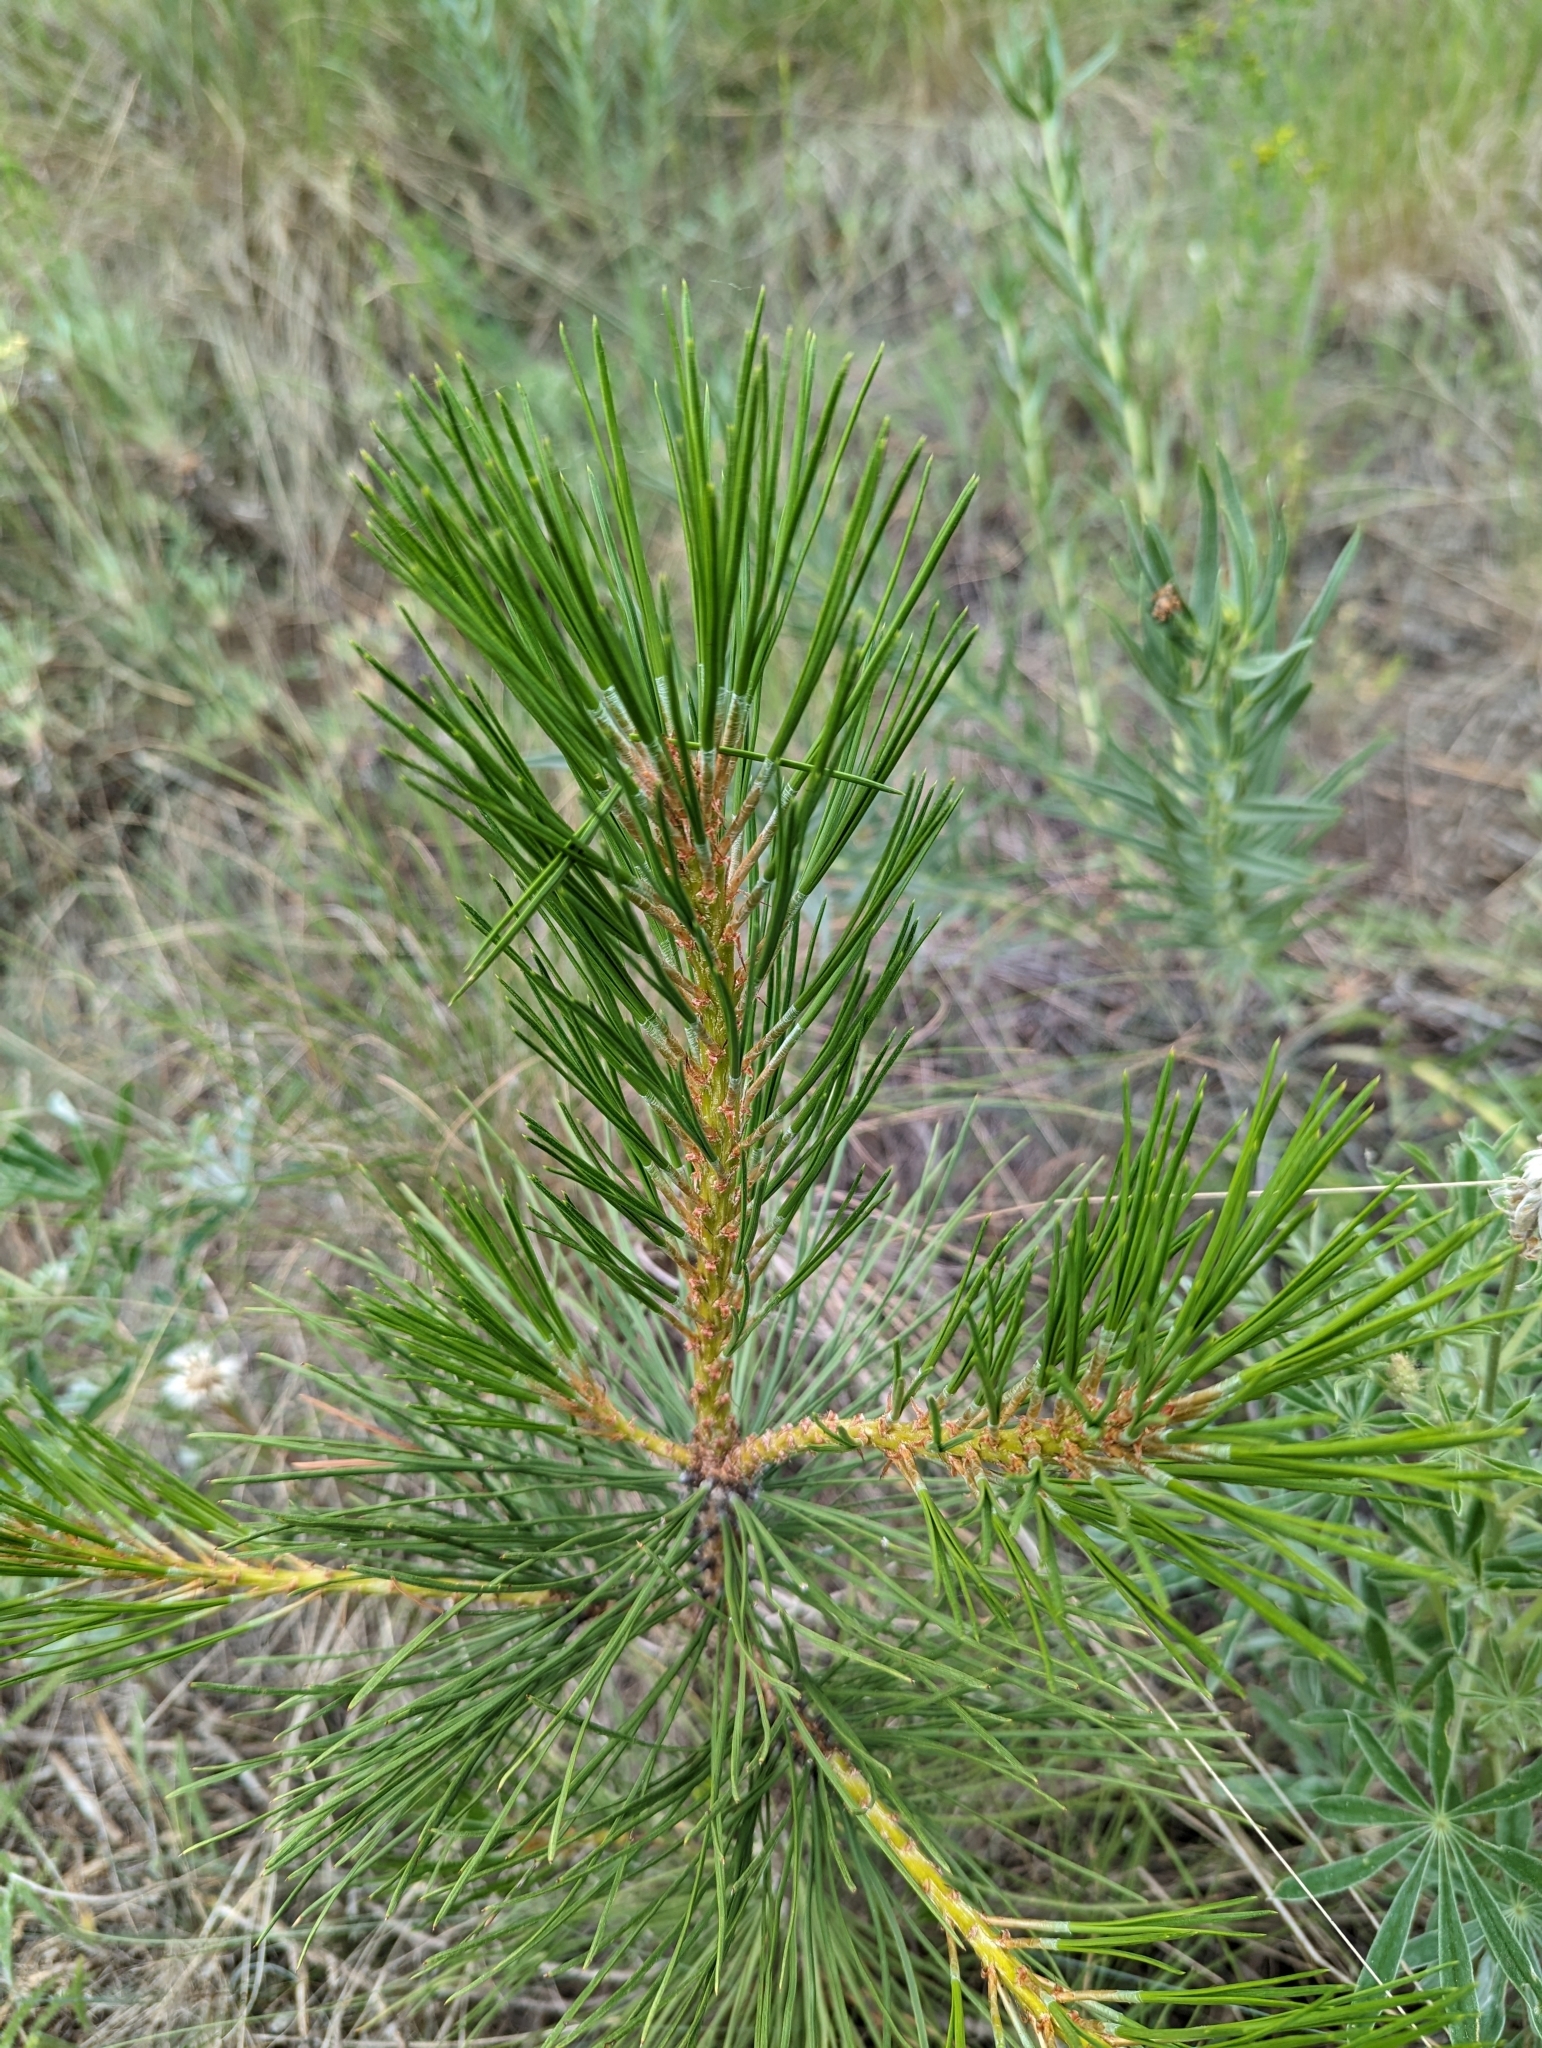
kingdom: Plantae
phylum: Tracheophyta
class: Pinopsida
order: Pinales
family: Pinaceae
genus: Pinus
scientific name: Pinus ponderosa
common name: Western yellow-pine
